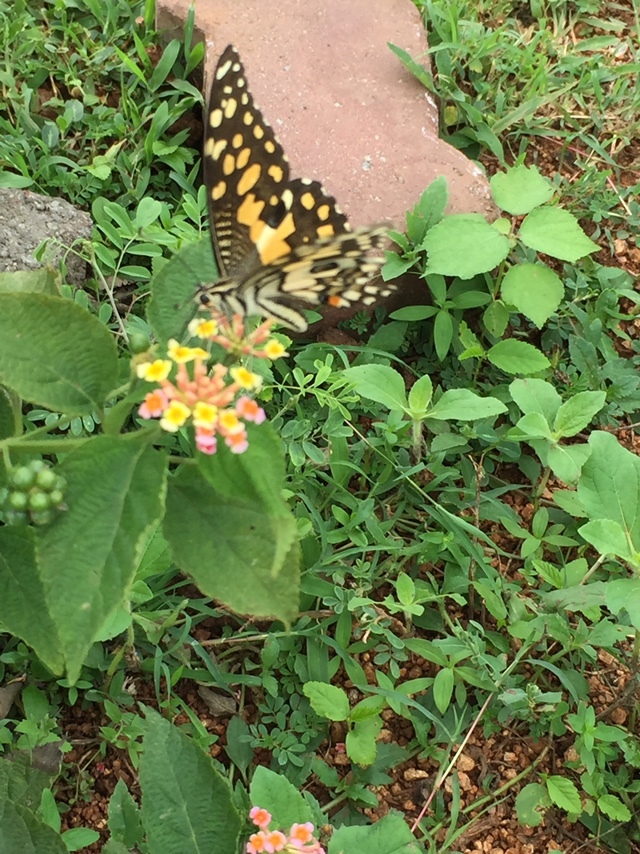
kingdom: Animalia
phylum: Arthropoda
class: Insecta
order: Lepidoptera
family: Papilionidae
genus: Papilio
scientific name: Papilio demoleus
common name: Lime butterfly
